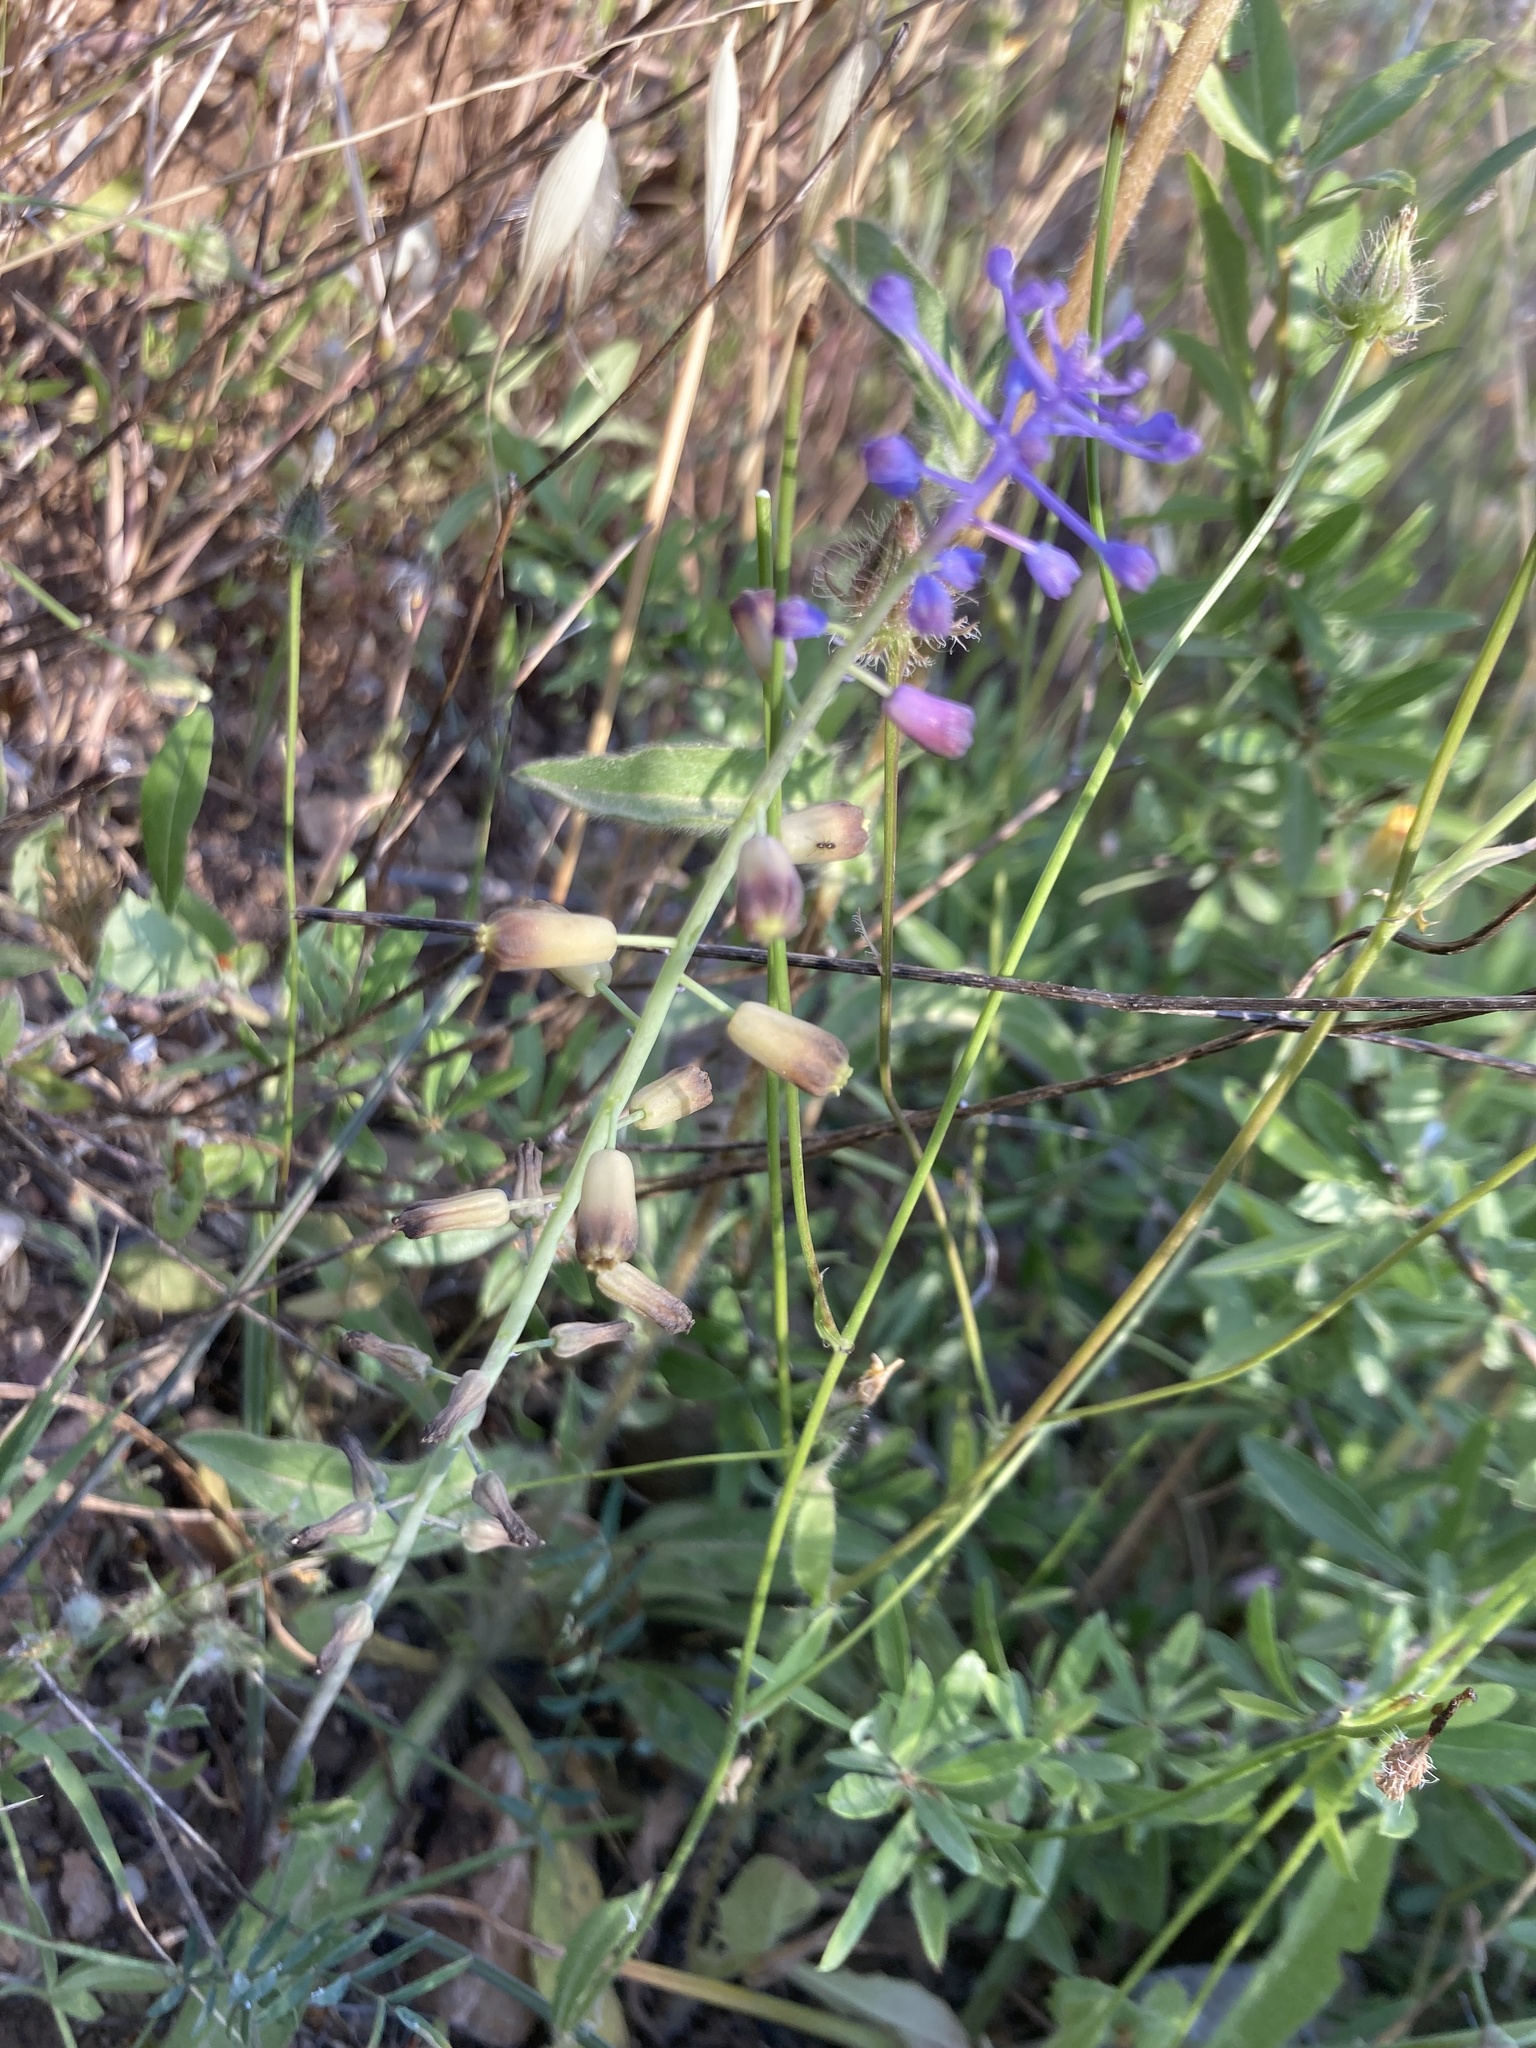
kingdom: Plantae
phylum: Tracheophyta
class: Liliopsida
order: Asparagales
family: Asparagaceae
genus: Muscari
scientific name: Muscari weissii
